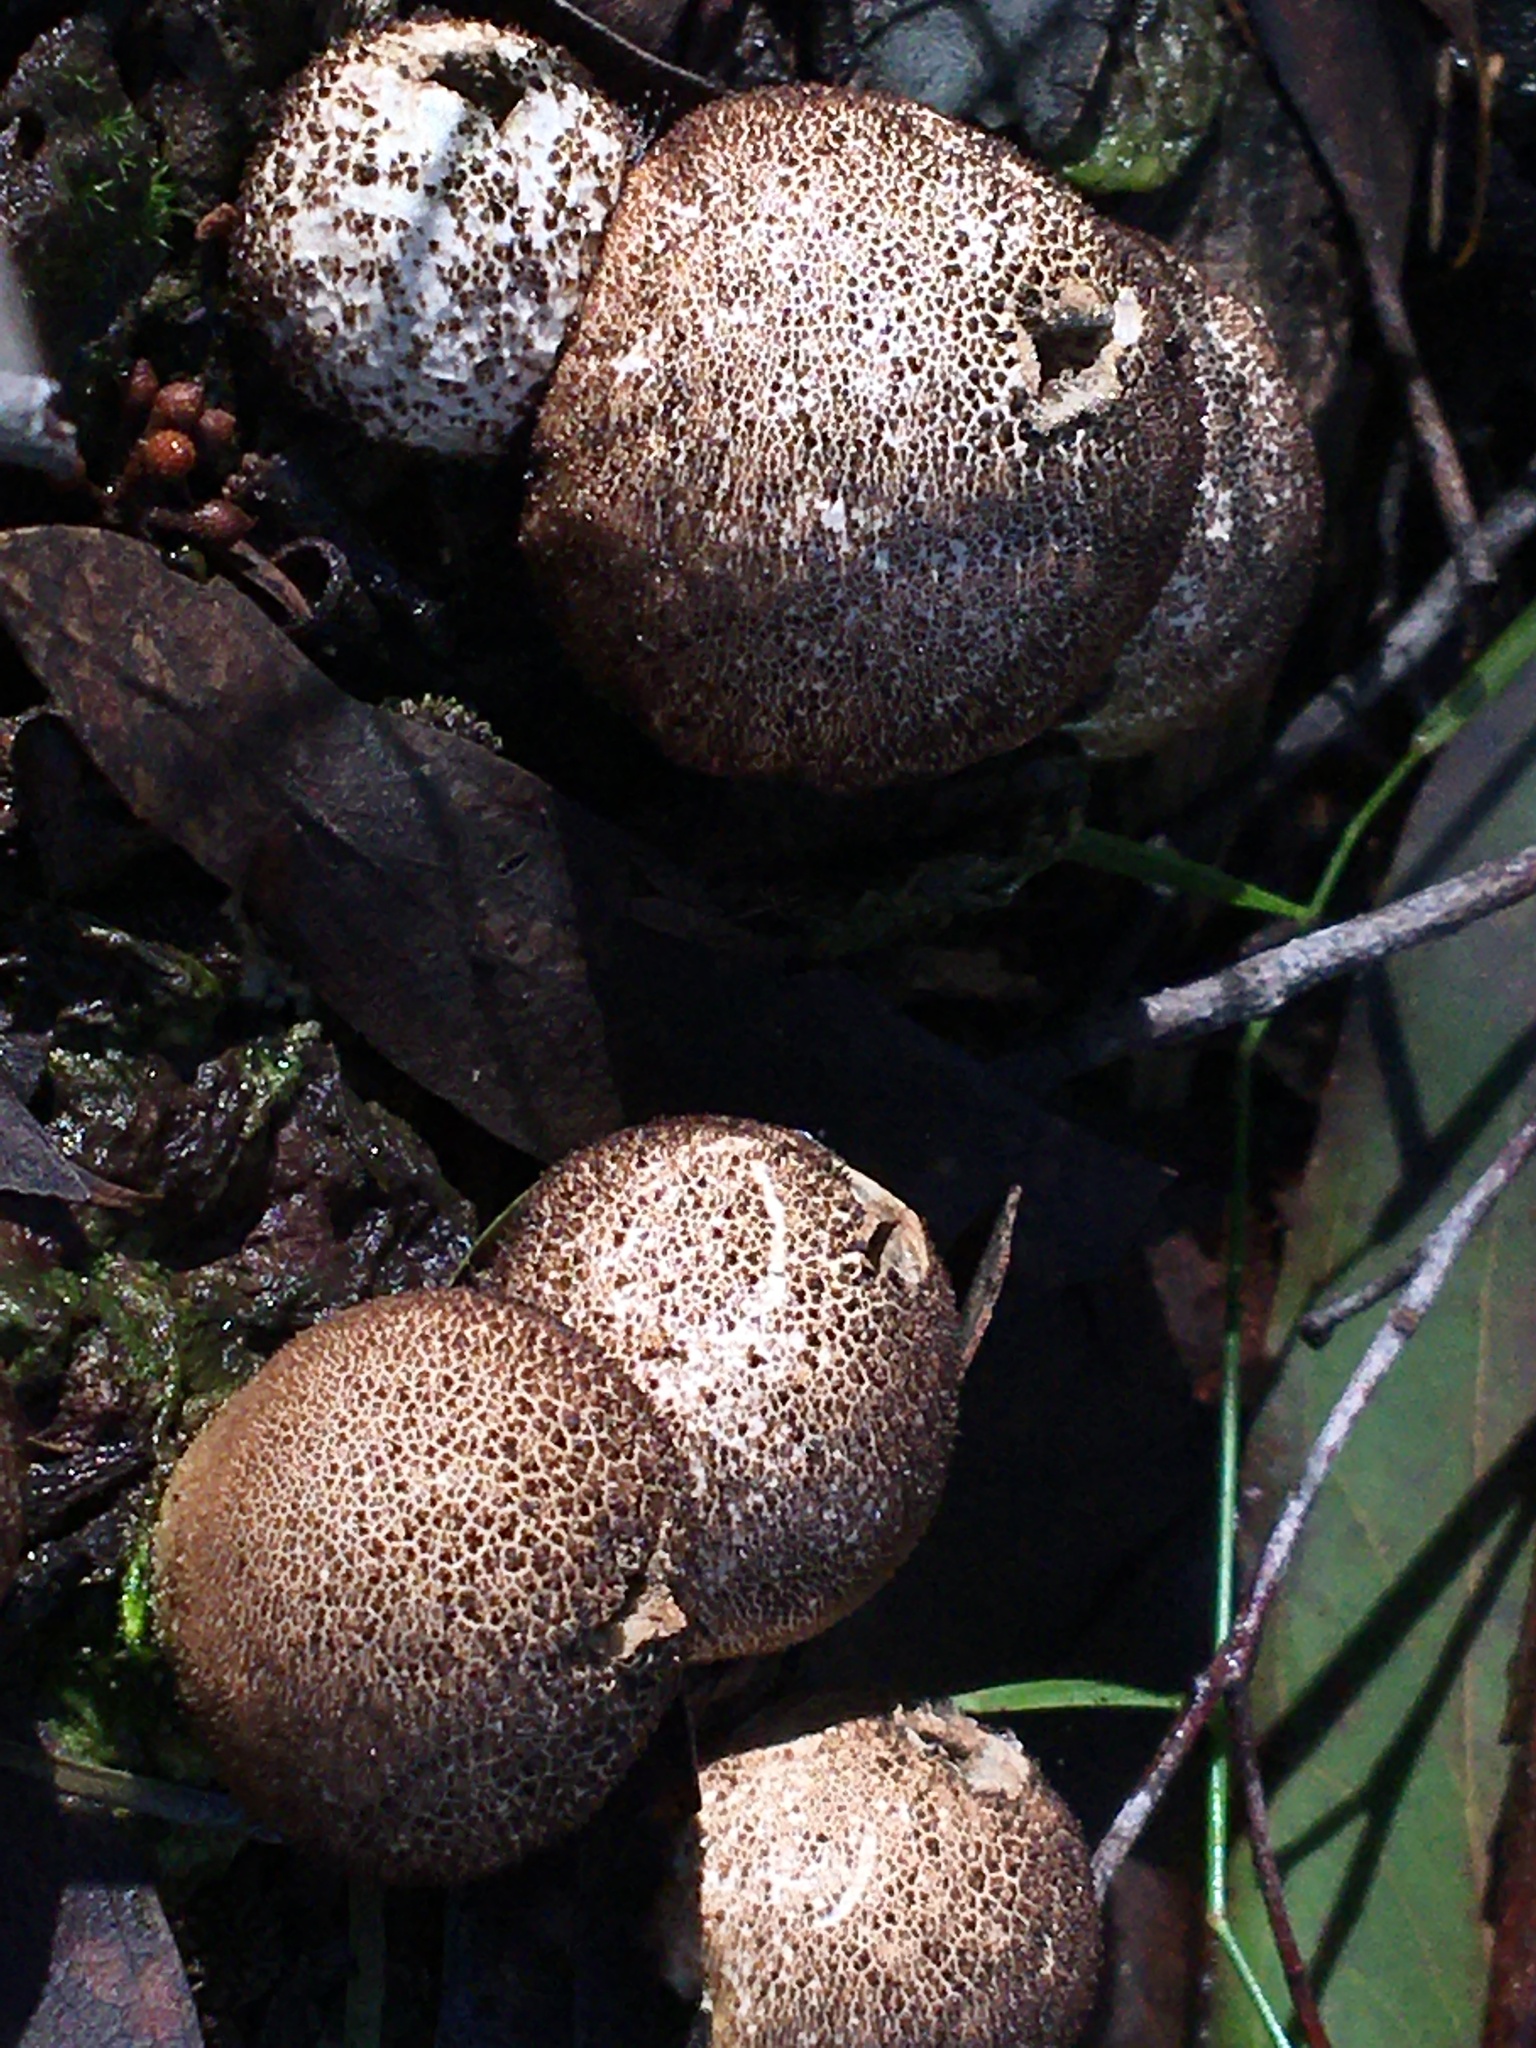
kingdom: Fungi
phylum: Basidiomycota
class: Agaricomycetes
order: Agaricales
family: Lycoperdaceae
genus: Apioperdon
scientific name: Apioperdon pyriforme
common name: Pear-shaped puffball
